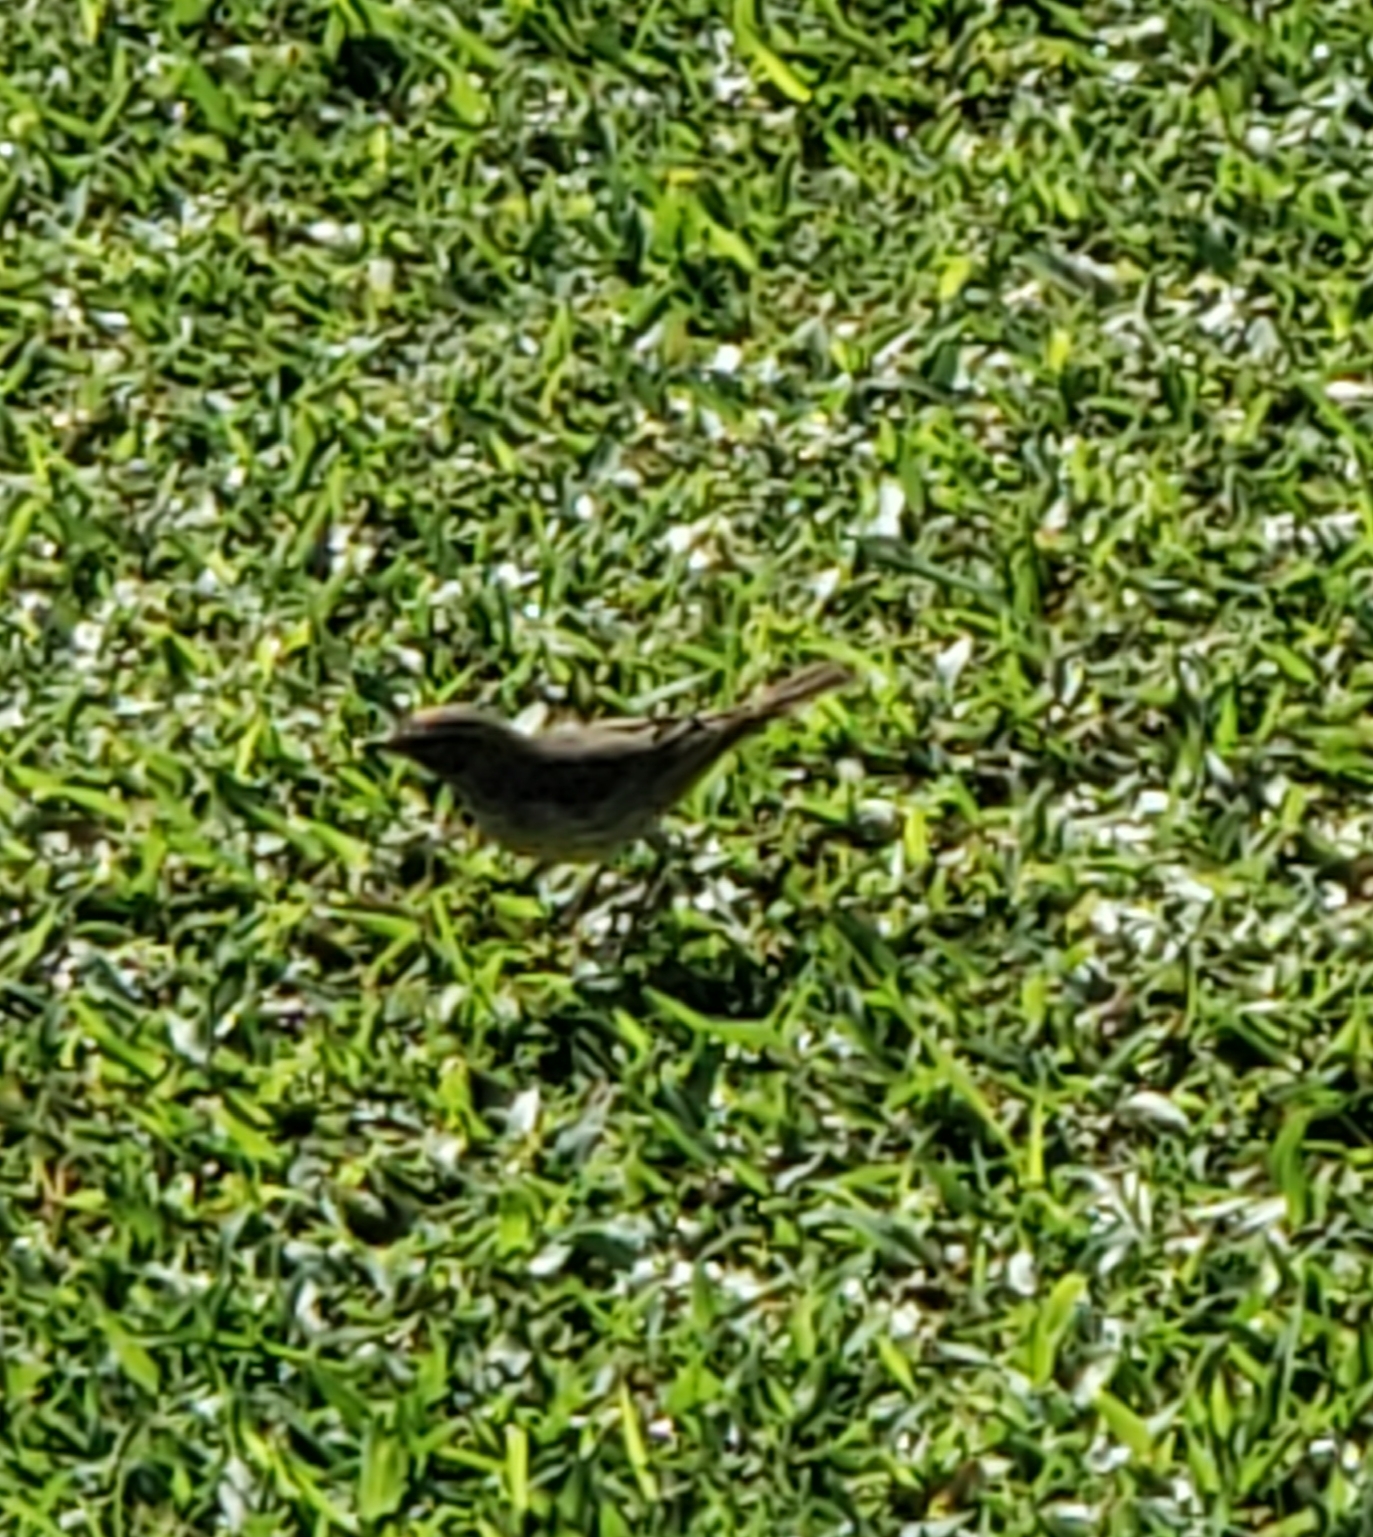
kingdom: Animalia
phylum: Chordata
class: Aves
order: Passeriformes
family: Parulidae
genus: Setophaga
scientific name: Setophaga palmarum
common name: Palm warbler
